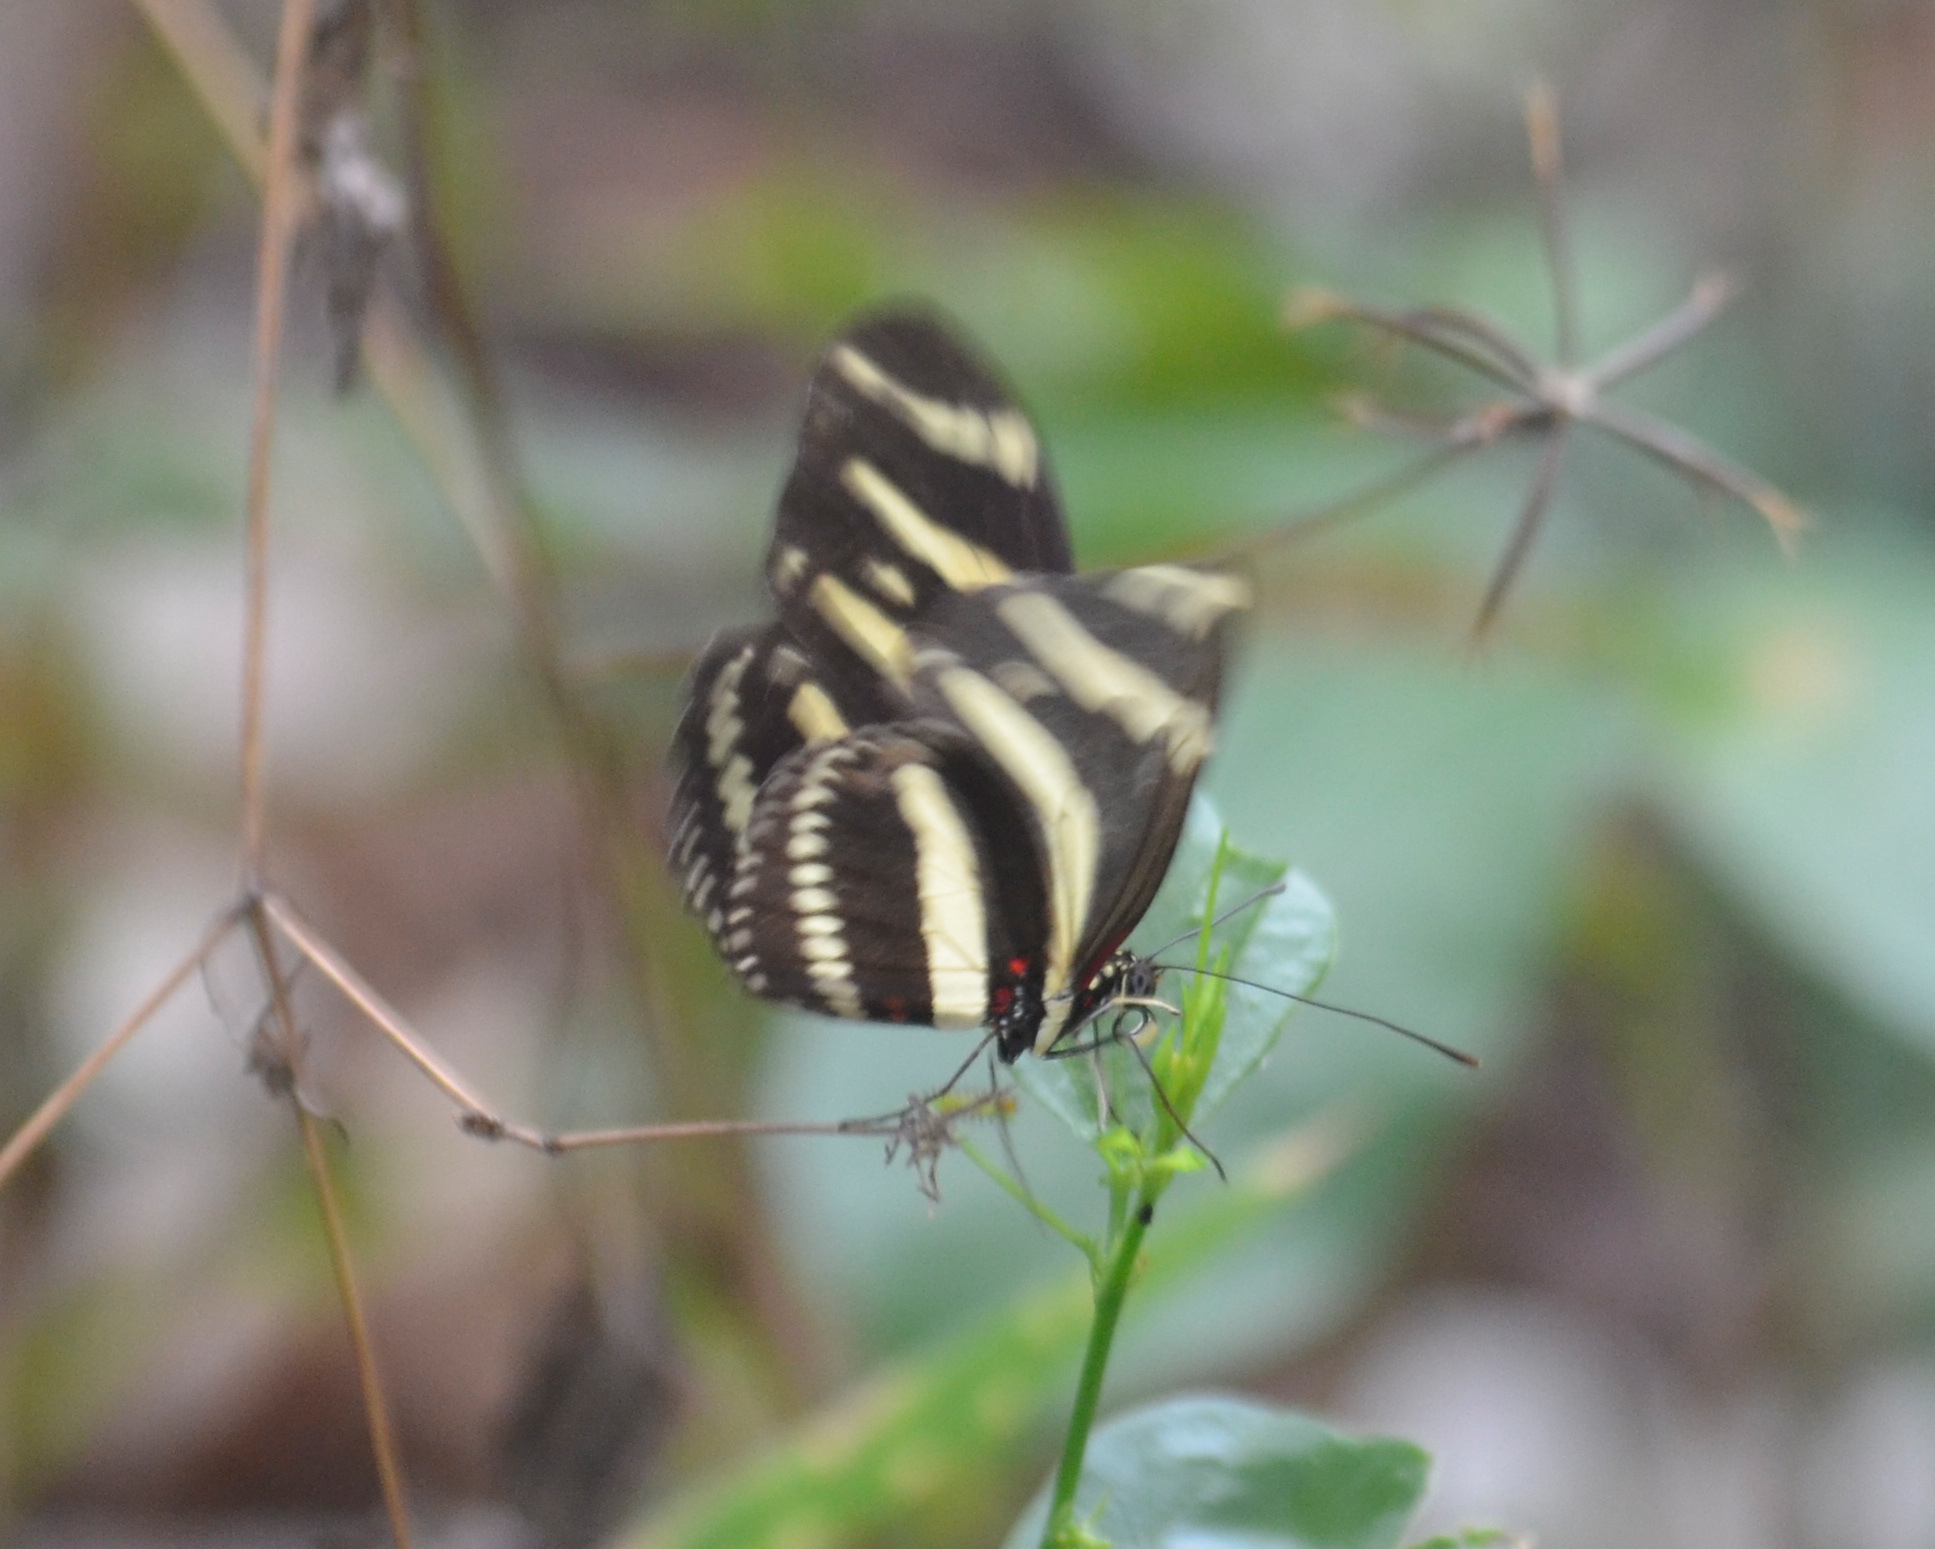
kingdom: Animalia
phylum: Arthropoda
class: Insecta
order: Lepidoptera
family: Nymphalidae
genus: Heliconius
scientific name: Heliconius charithonia
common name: Zebra long wing
